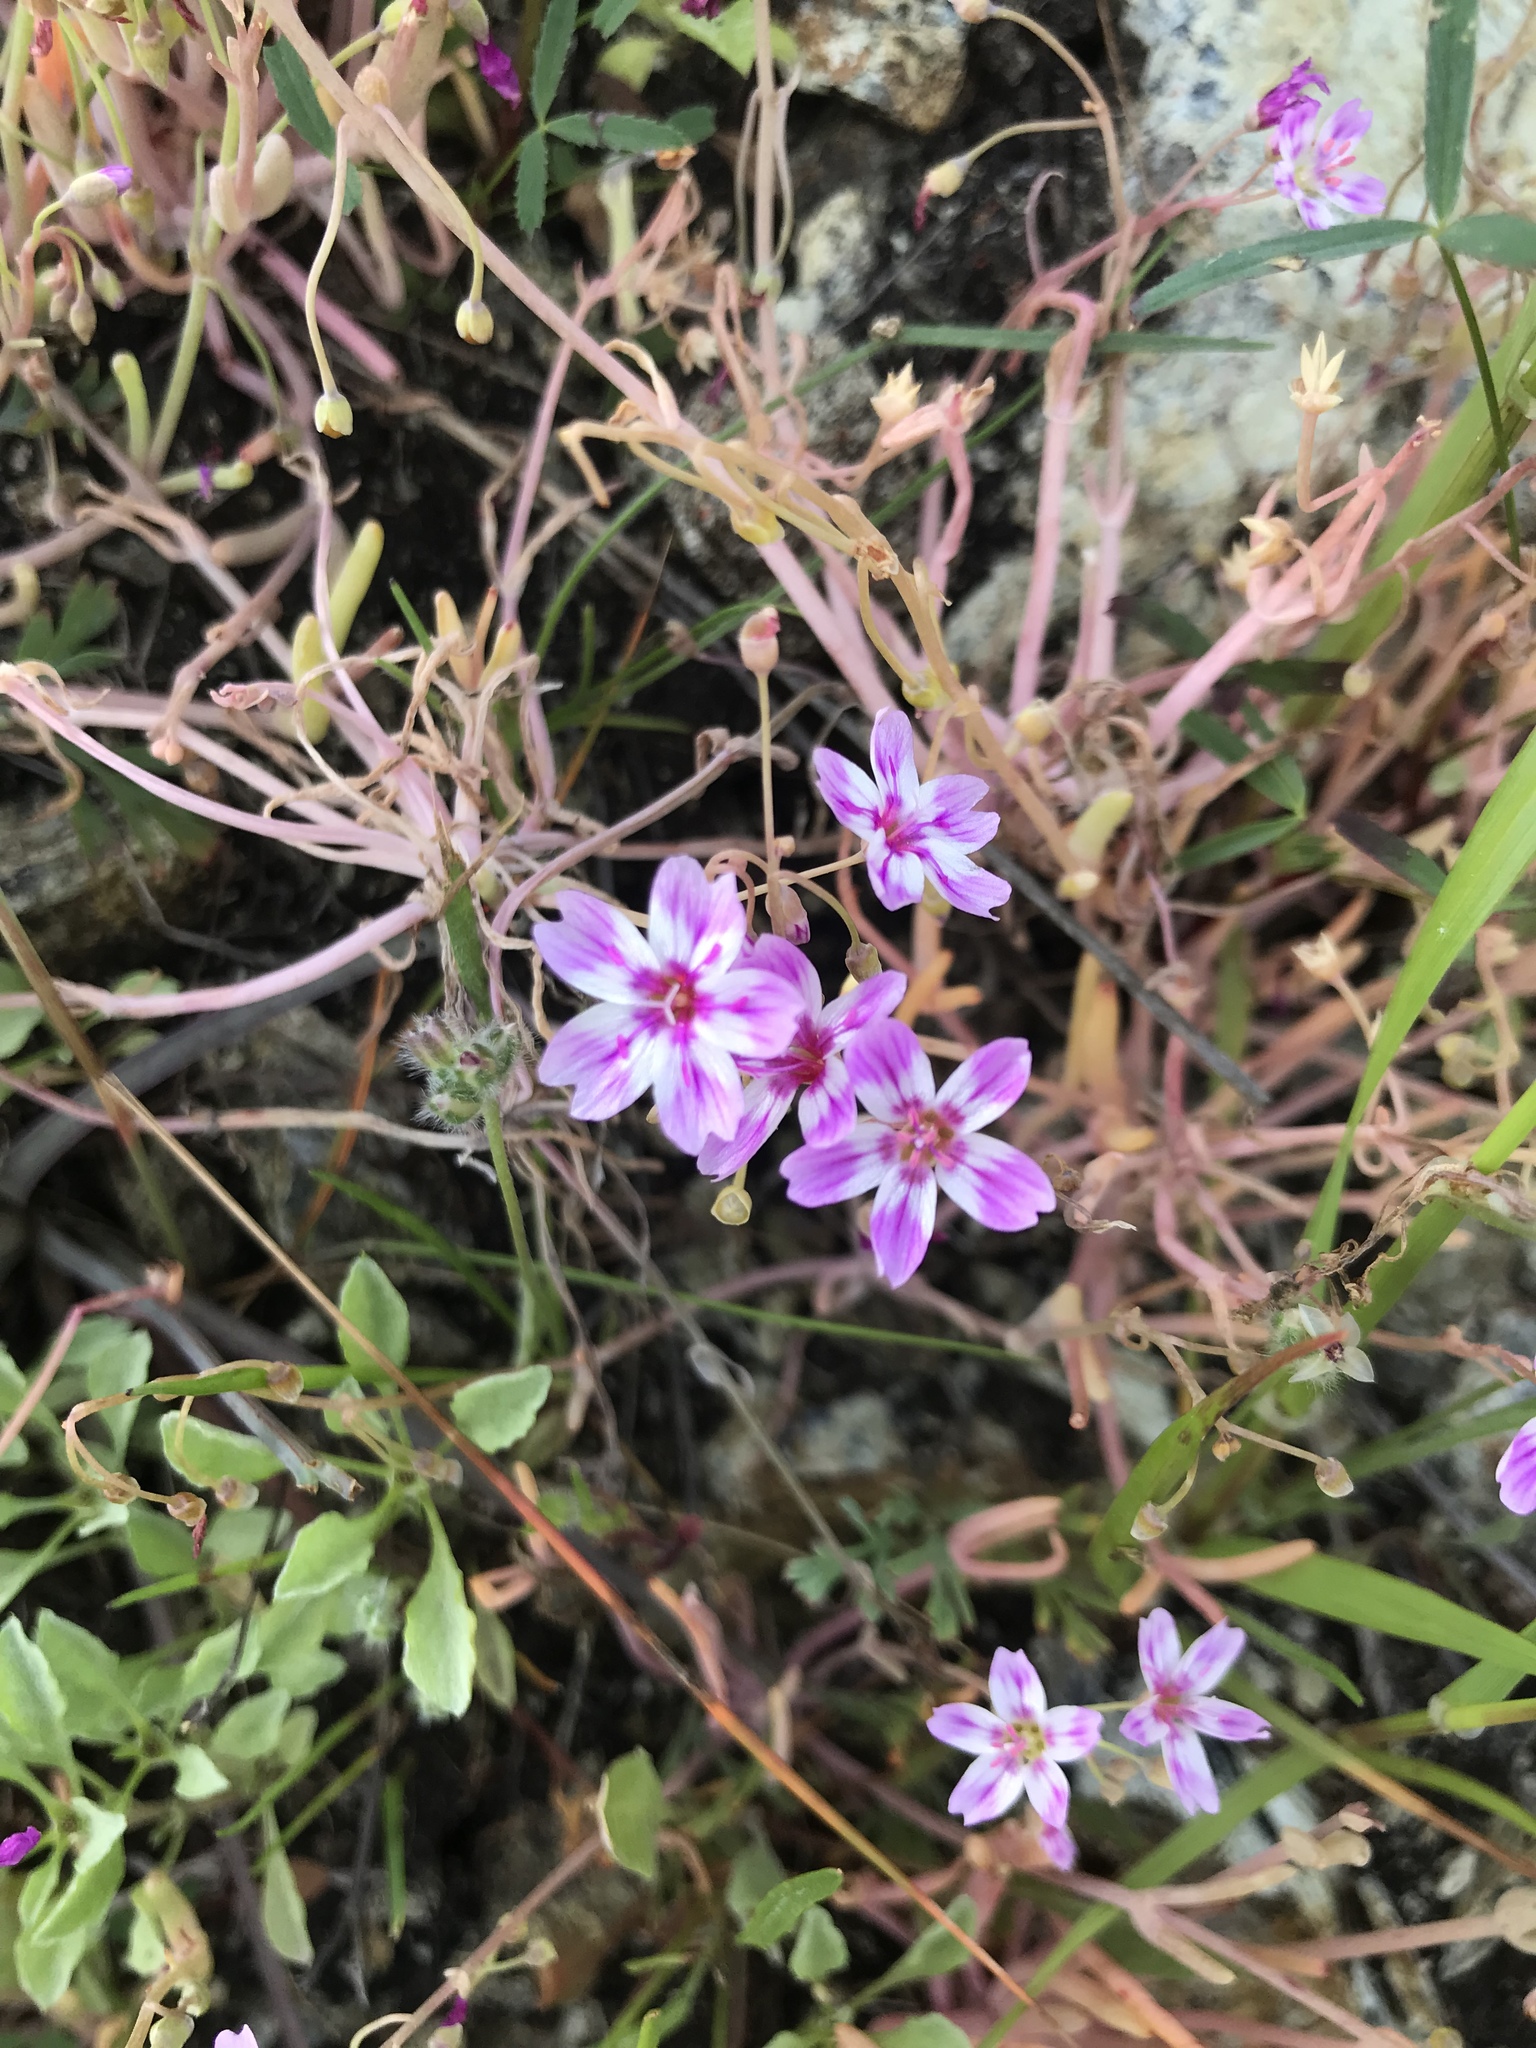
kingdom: Plantae
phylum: Tracheophyta
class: Magnoliopsida
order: Caryophyllales
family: Montiaceae
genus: Claytonia
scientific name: Claytonia gypsophiloides
